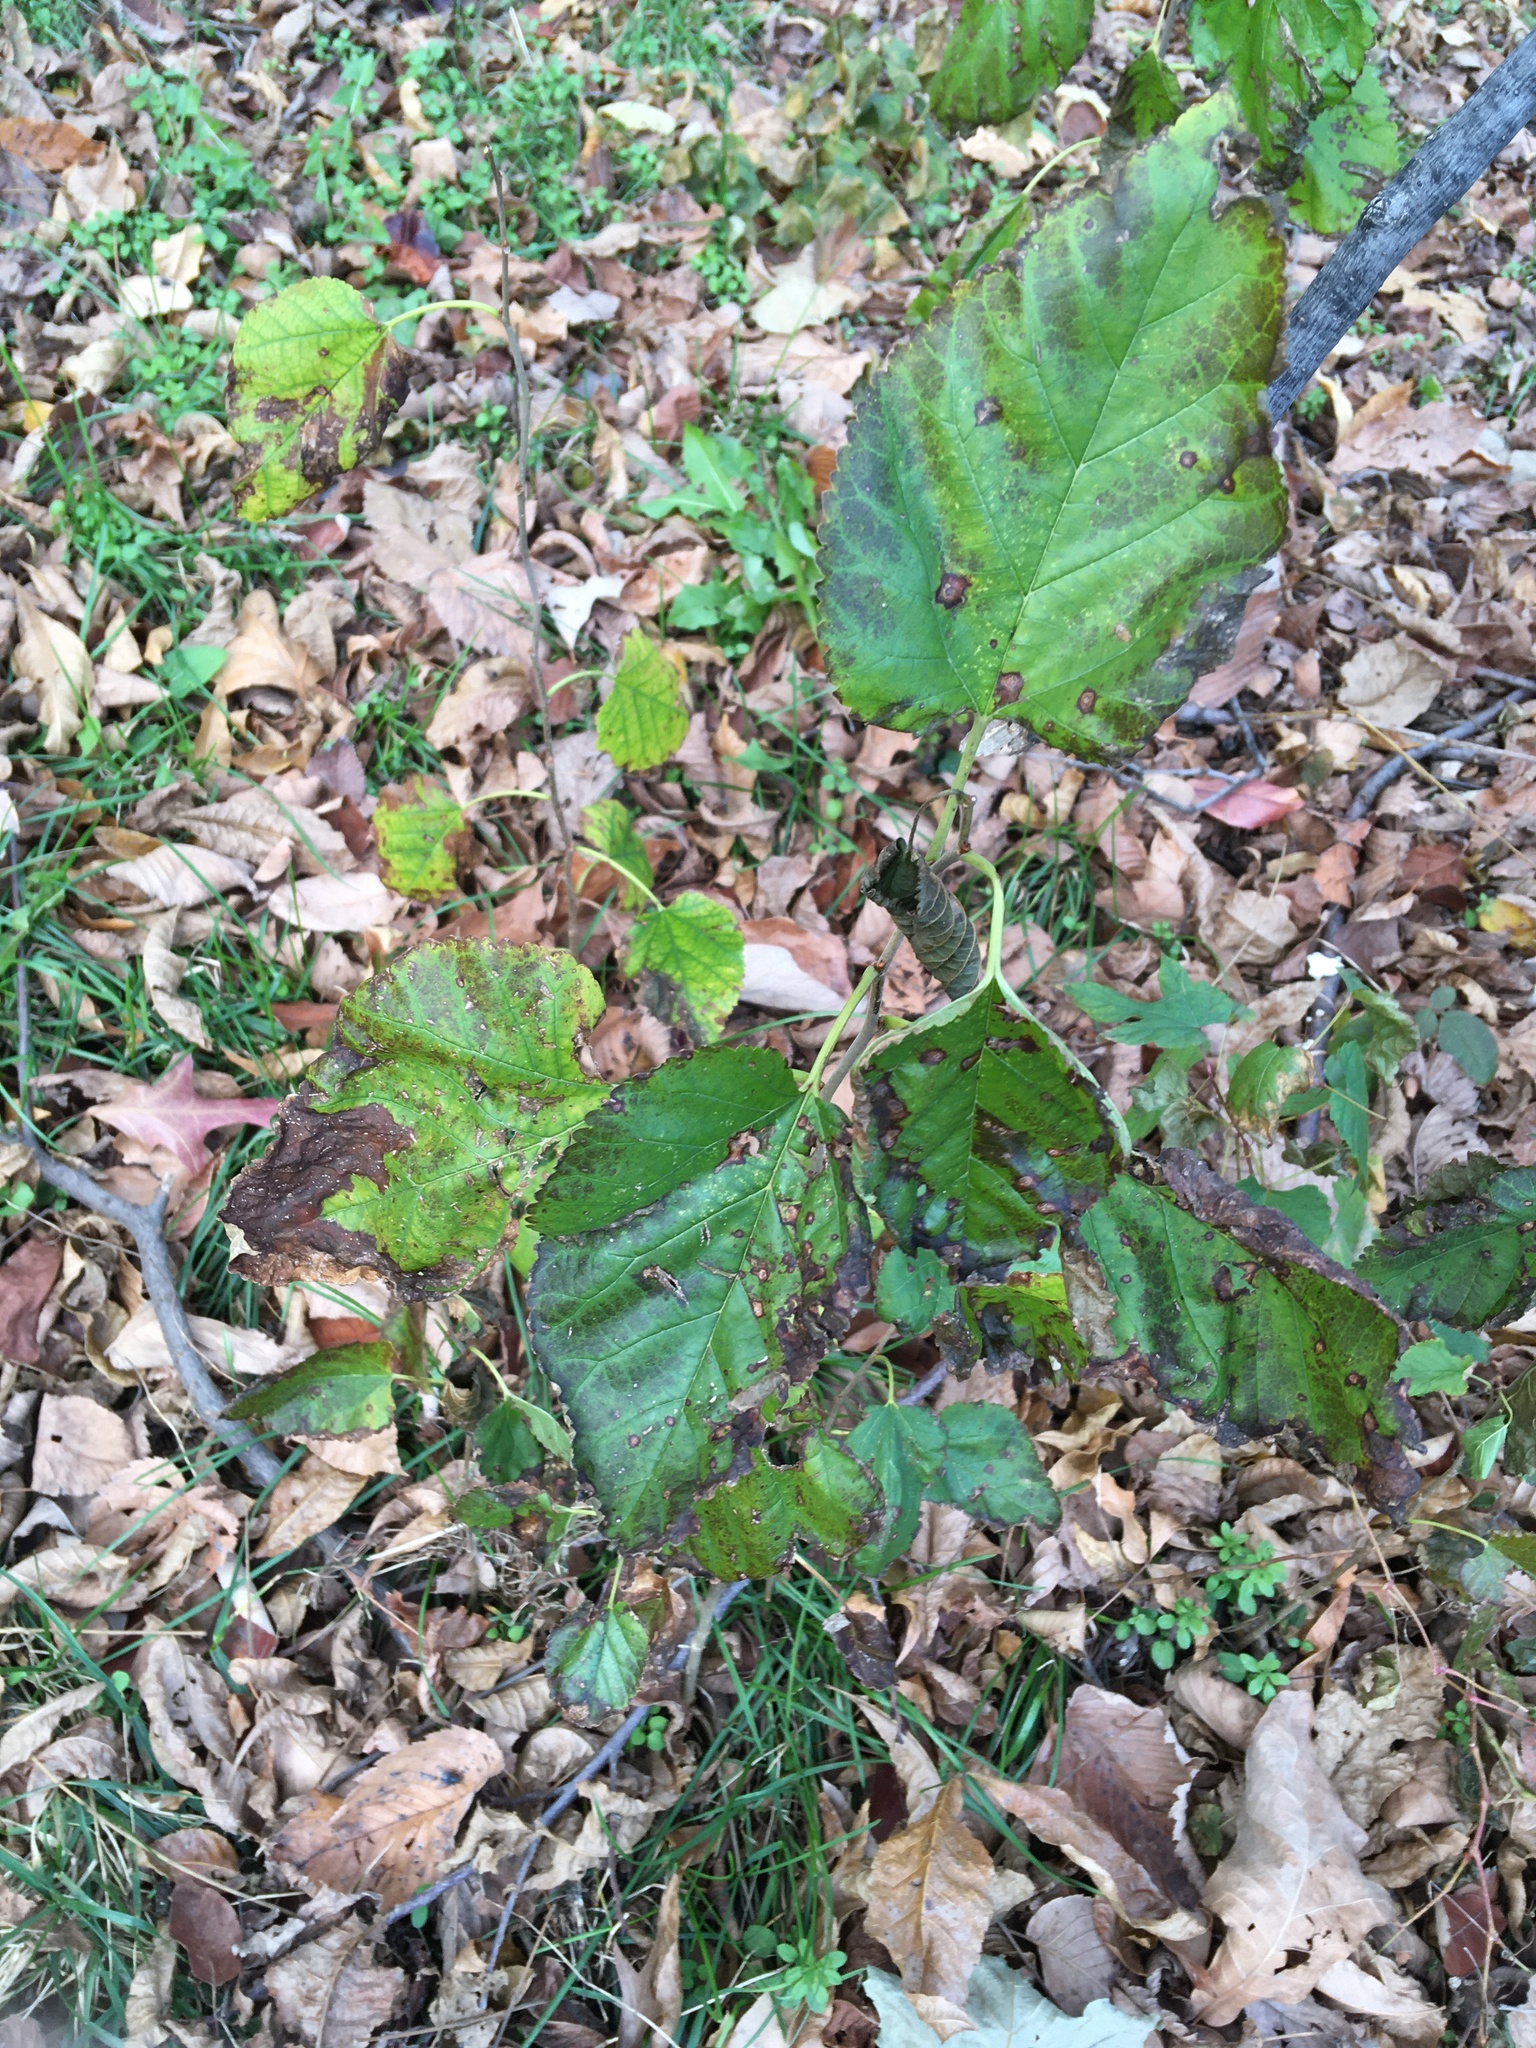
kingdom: Plantae
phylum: Tracheophyta
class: Magnoliopsida
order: Rosales
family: Moraceae
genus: Morus
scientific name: Morus alba
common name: White mulberry
